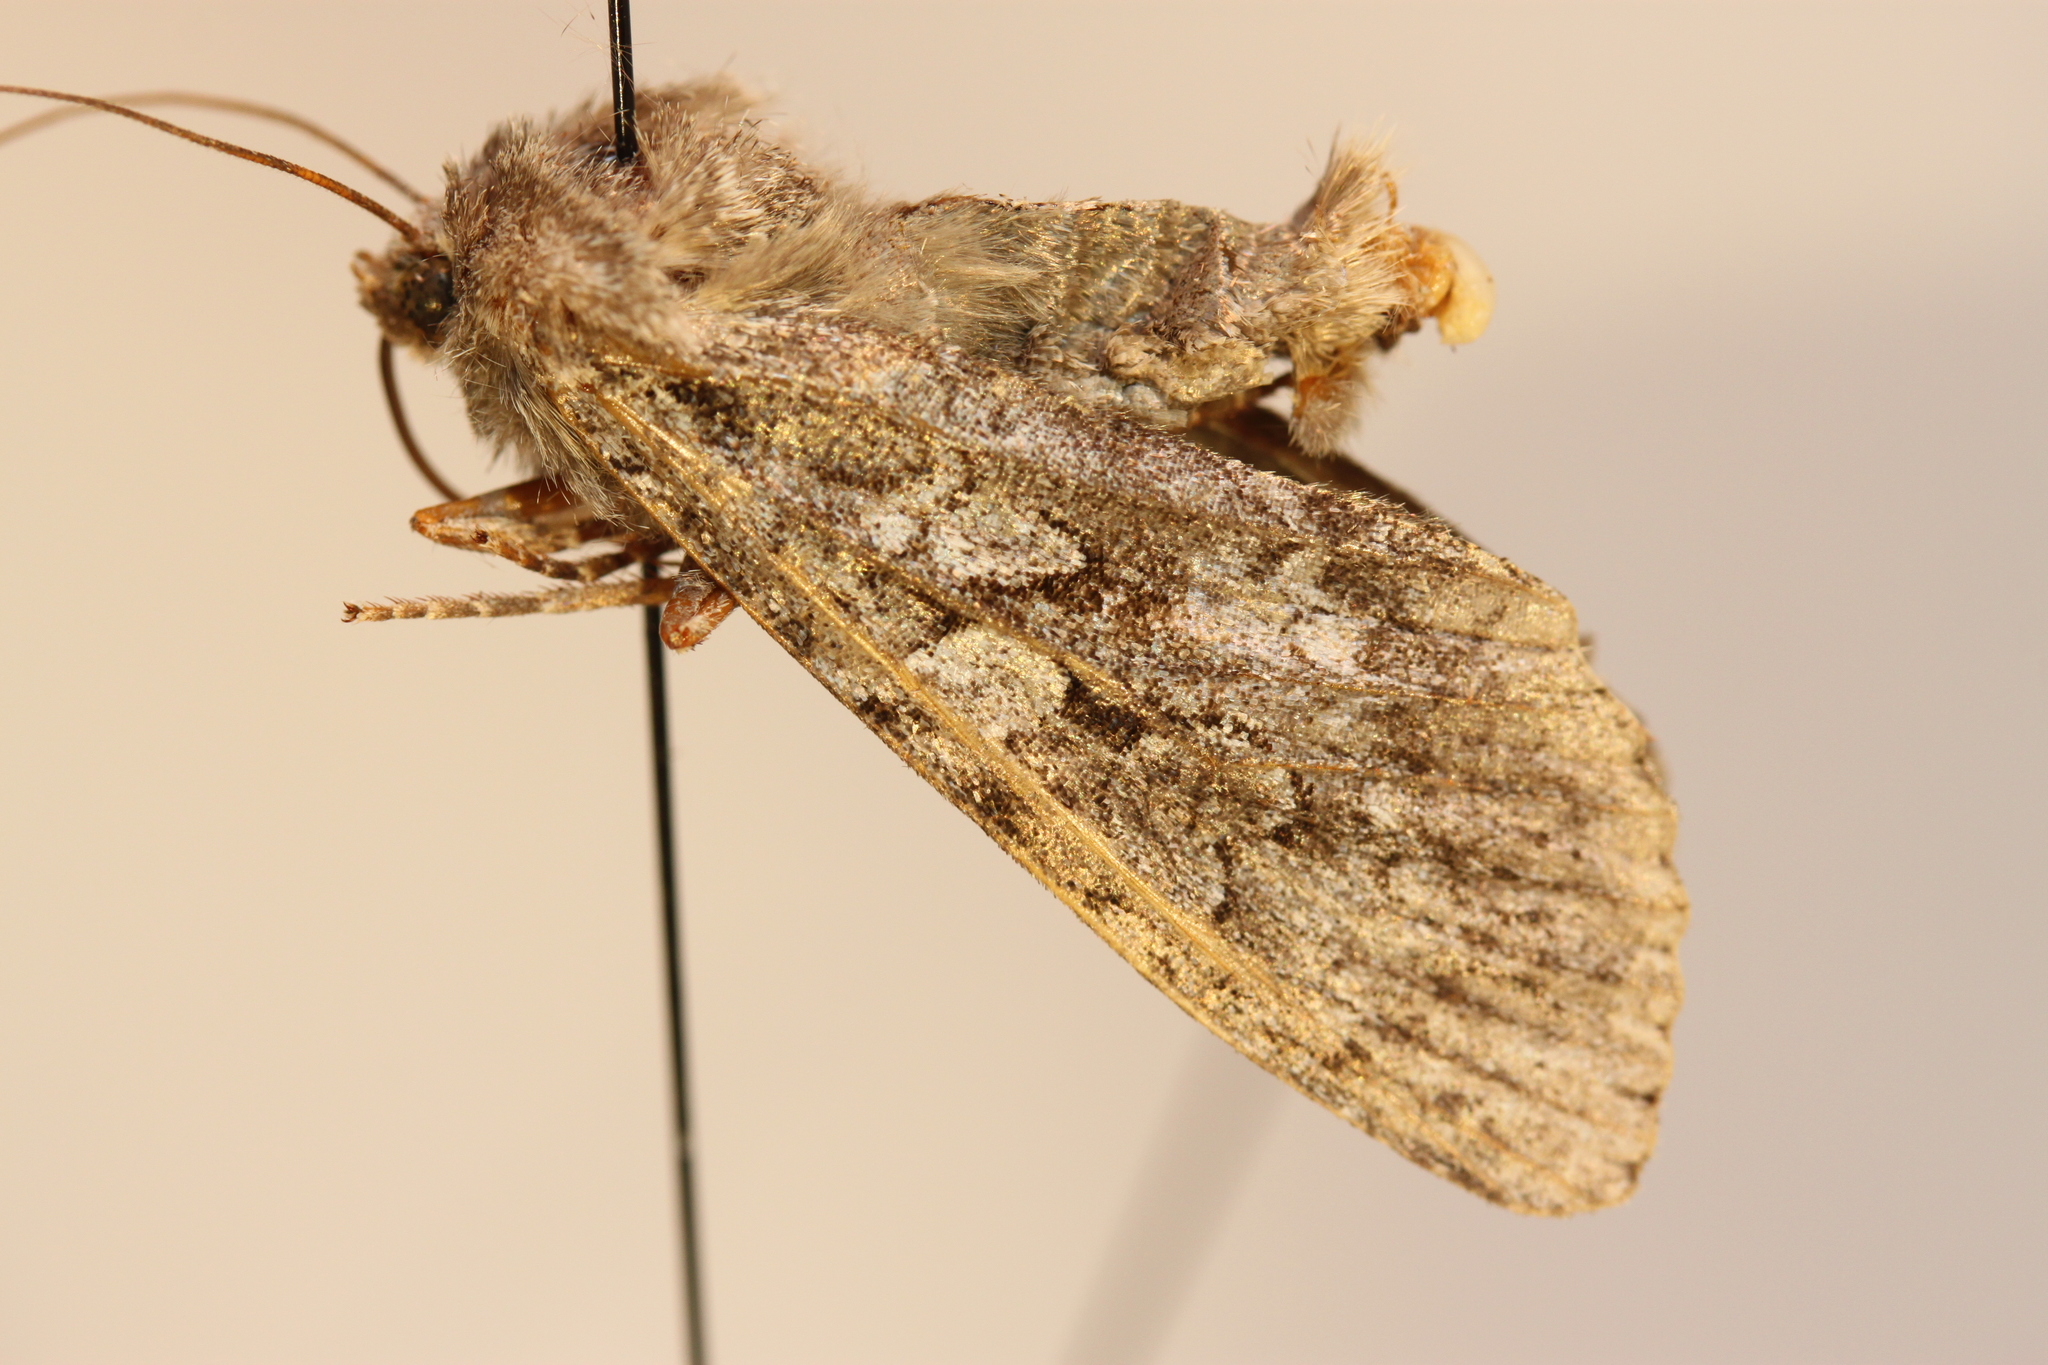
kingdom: Animalia
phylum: Arthropoda
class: Insecta
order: Lepidoptera
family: Noctuidae
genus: Eurois
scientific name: Eurois occulta
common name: Great brocade
